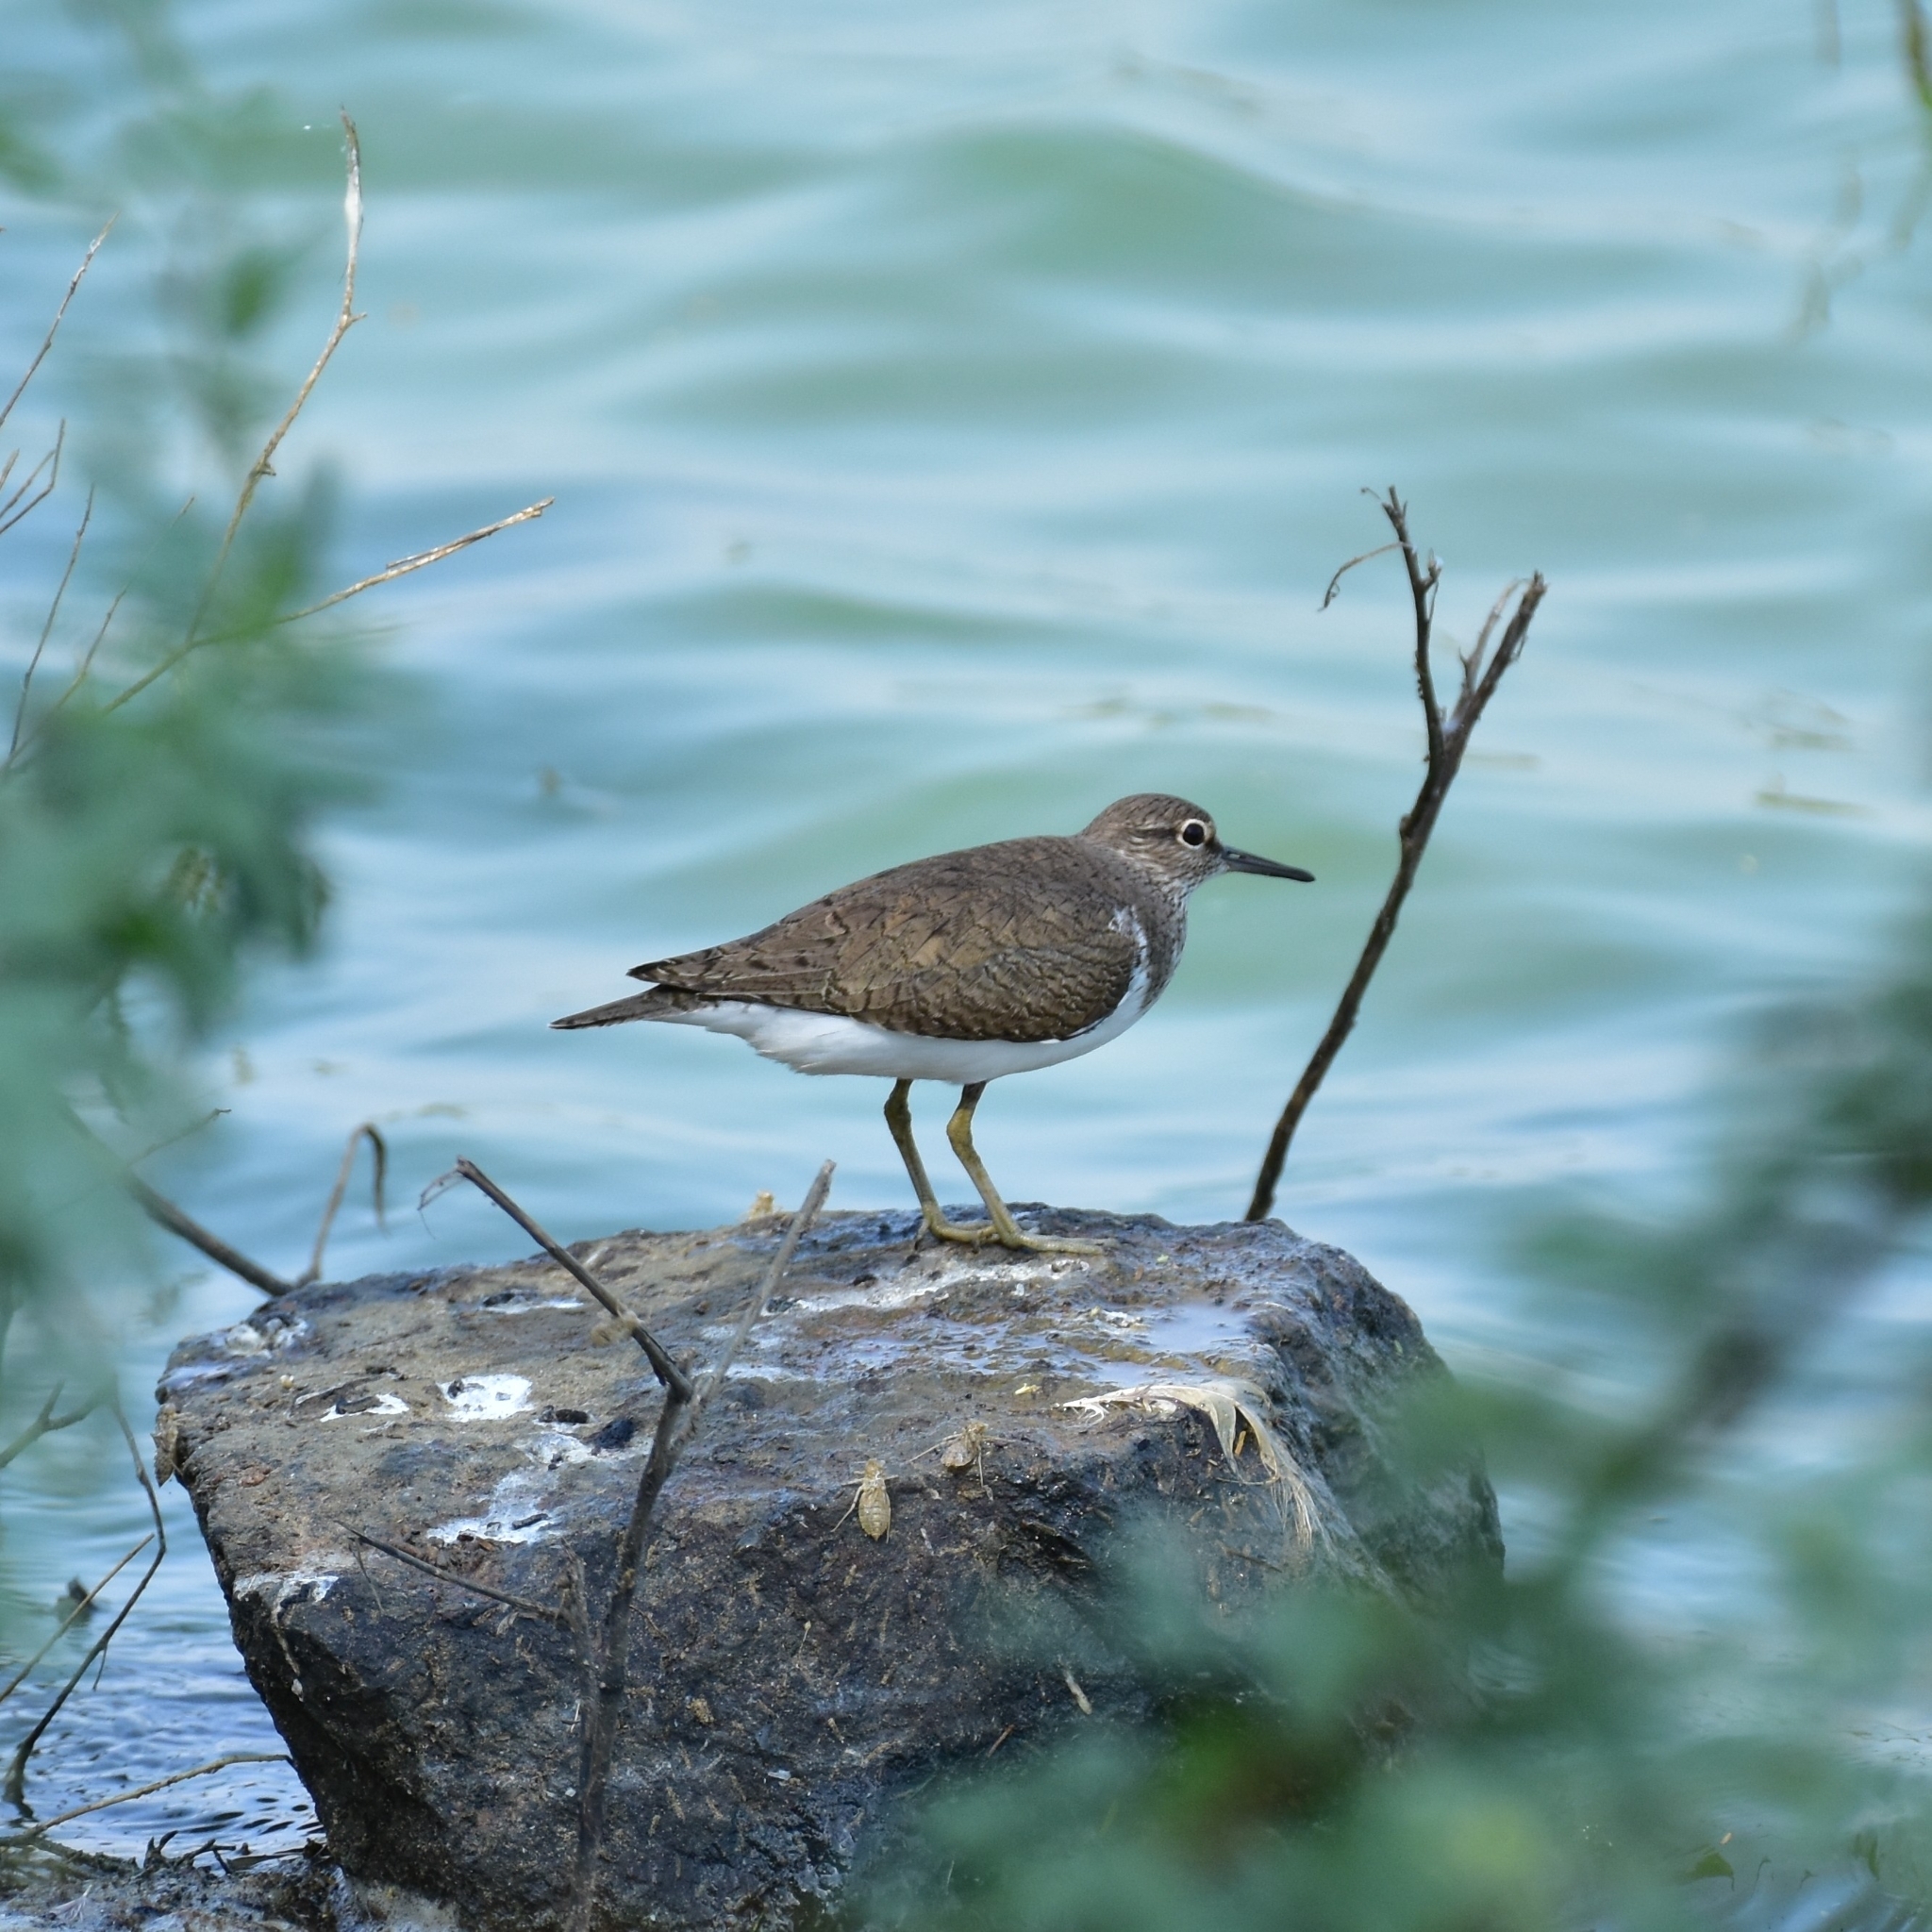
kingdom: Animalia
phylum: Chordata
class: Aves
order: Charadriiformes
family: Scolopacidae
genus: Actitis
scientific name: Actitis hypoleucos
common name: Common sandpiper
